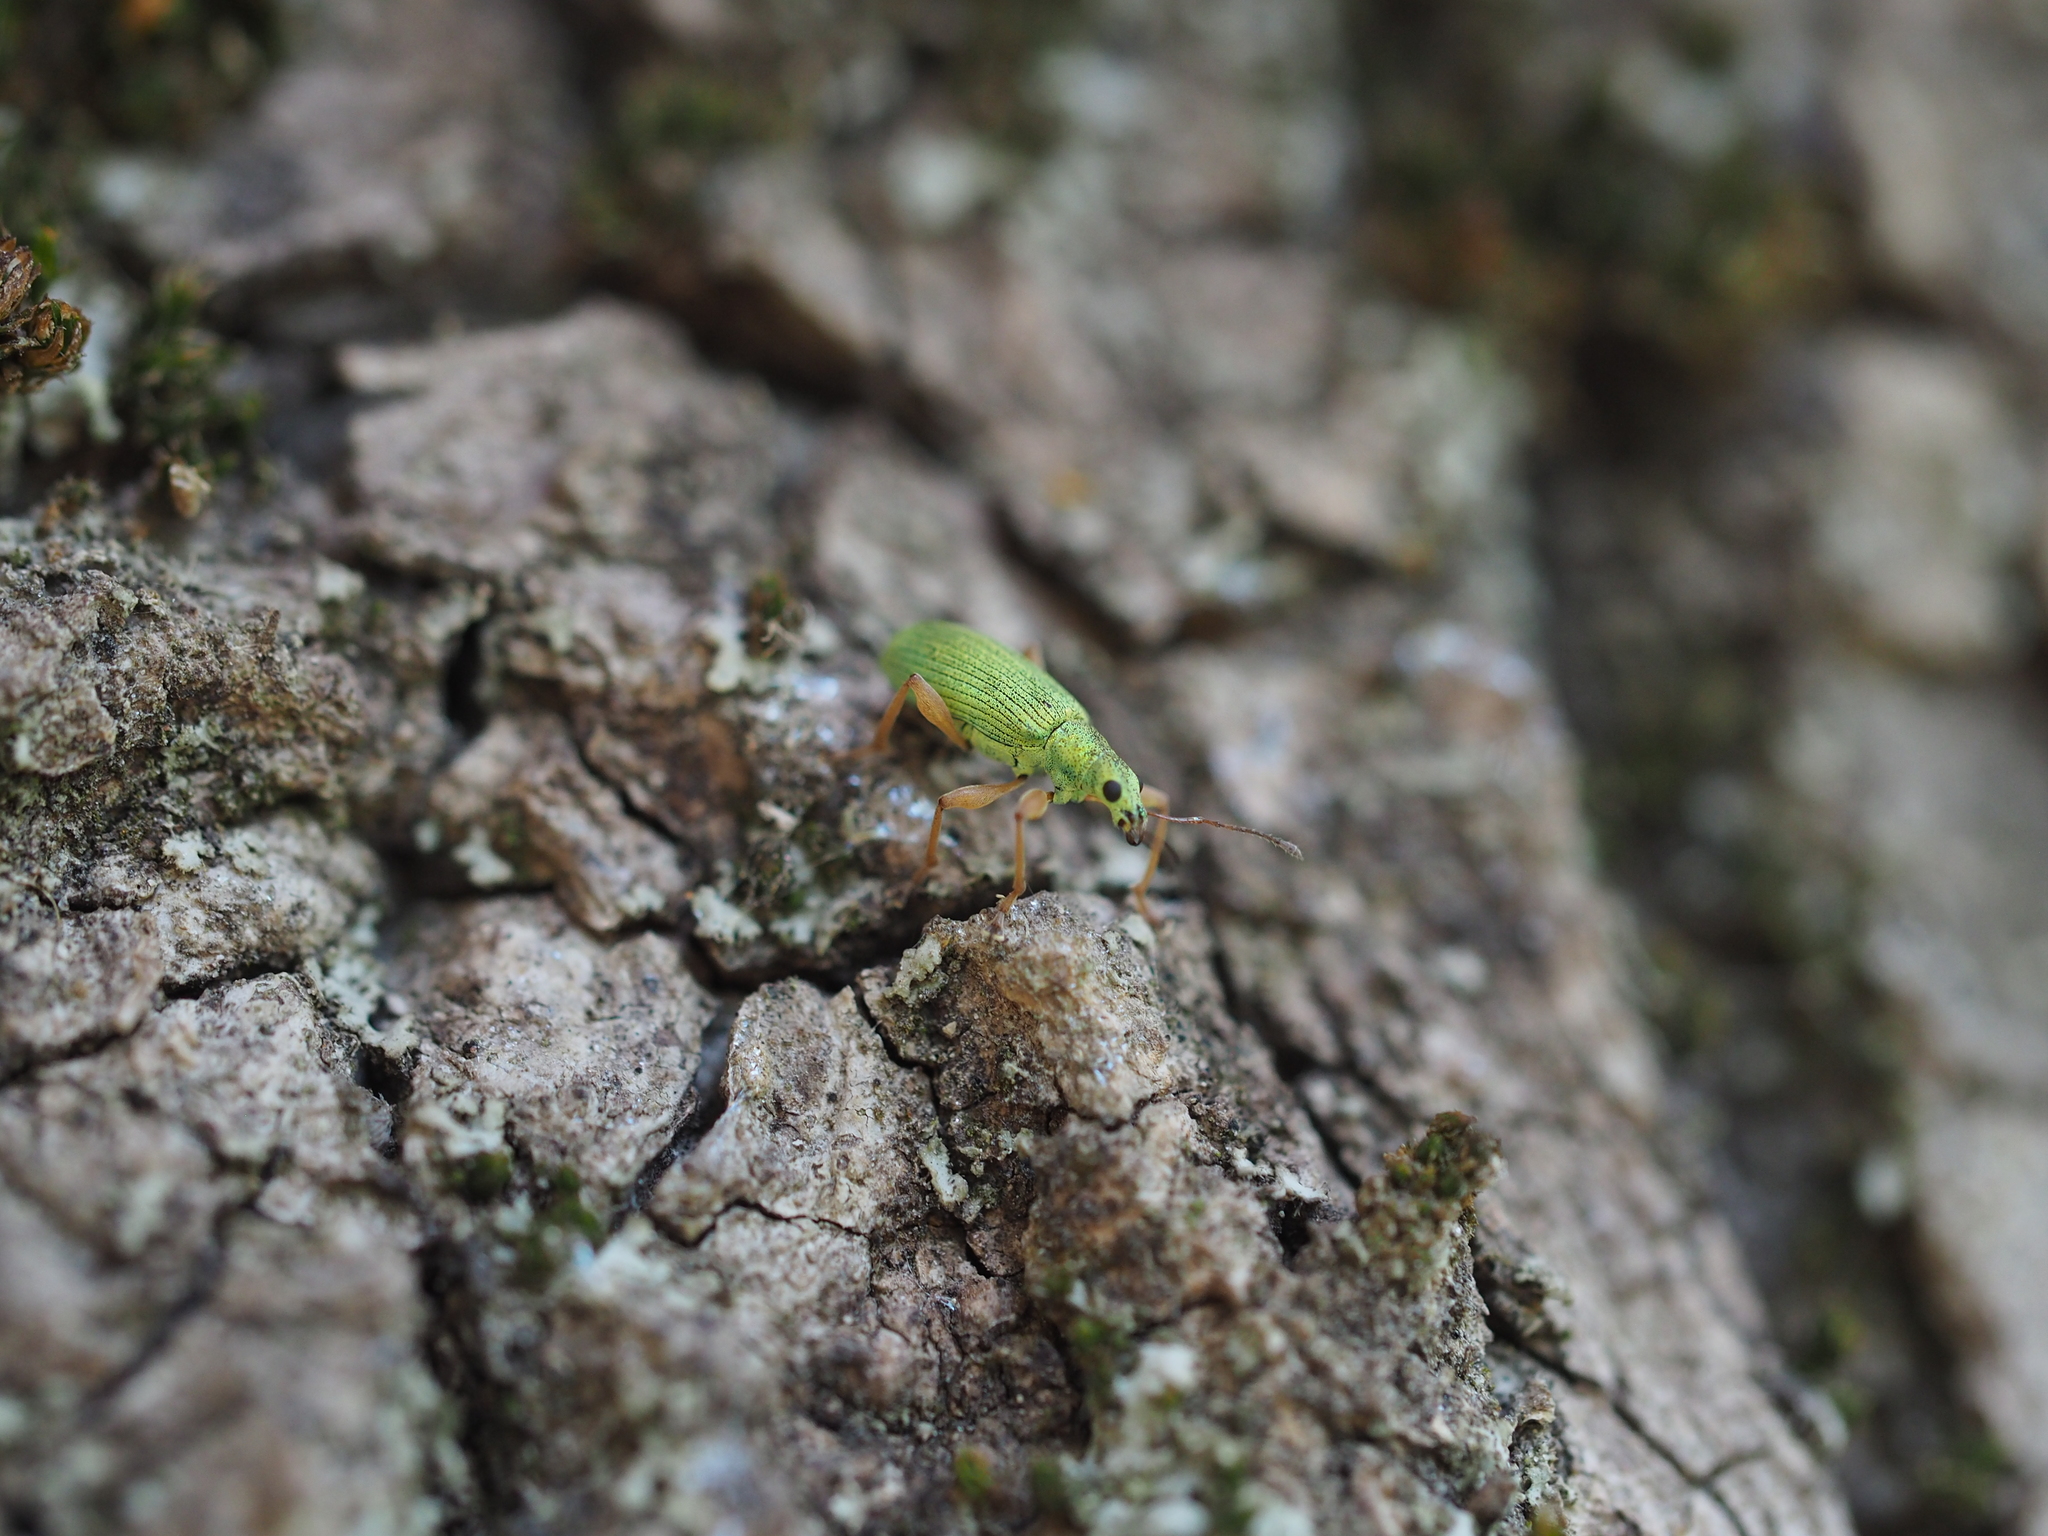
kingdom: Animalia
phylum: Arthropoda
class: Insecta
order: Coleoptera
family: Curculionidae
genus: Polydrusus
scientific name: Polydrusus impressifrons
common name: Weevil
